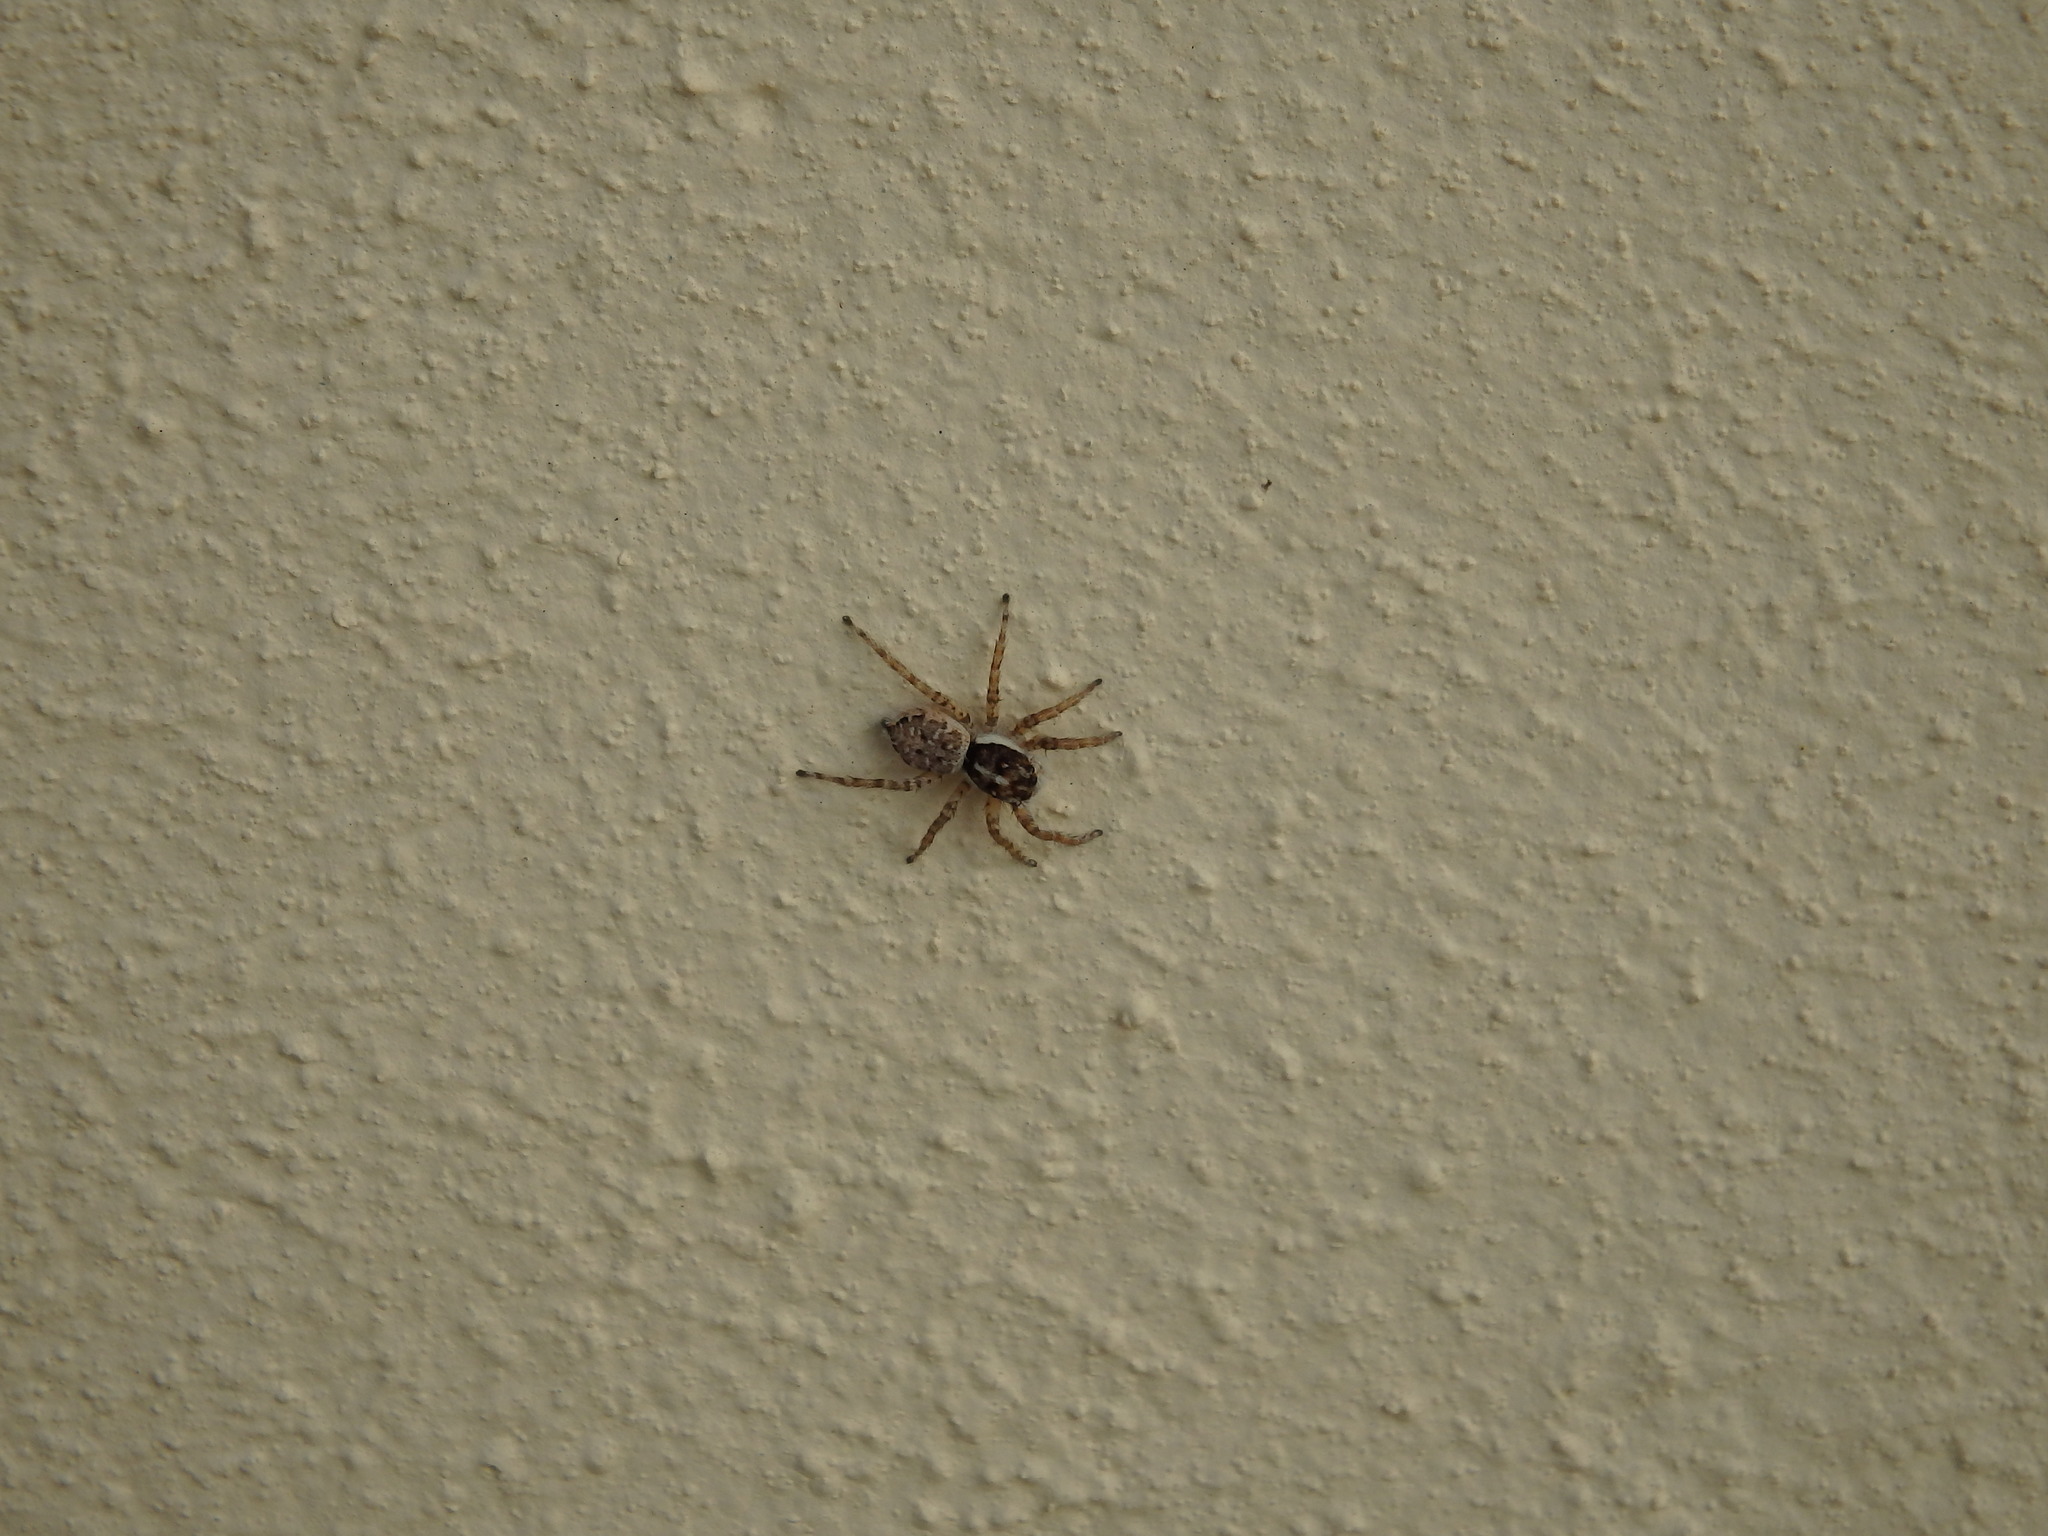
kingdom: Animalia
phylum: Arthropoda
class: Arachnida
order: Araneae
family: Salticidae
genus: Menemerus
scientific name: Menemerus semilimbatus
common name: Jumping spider
